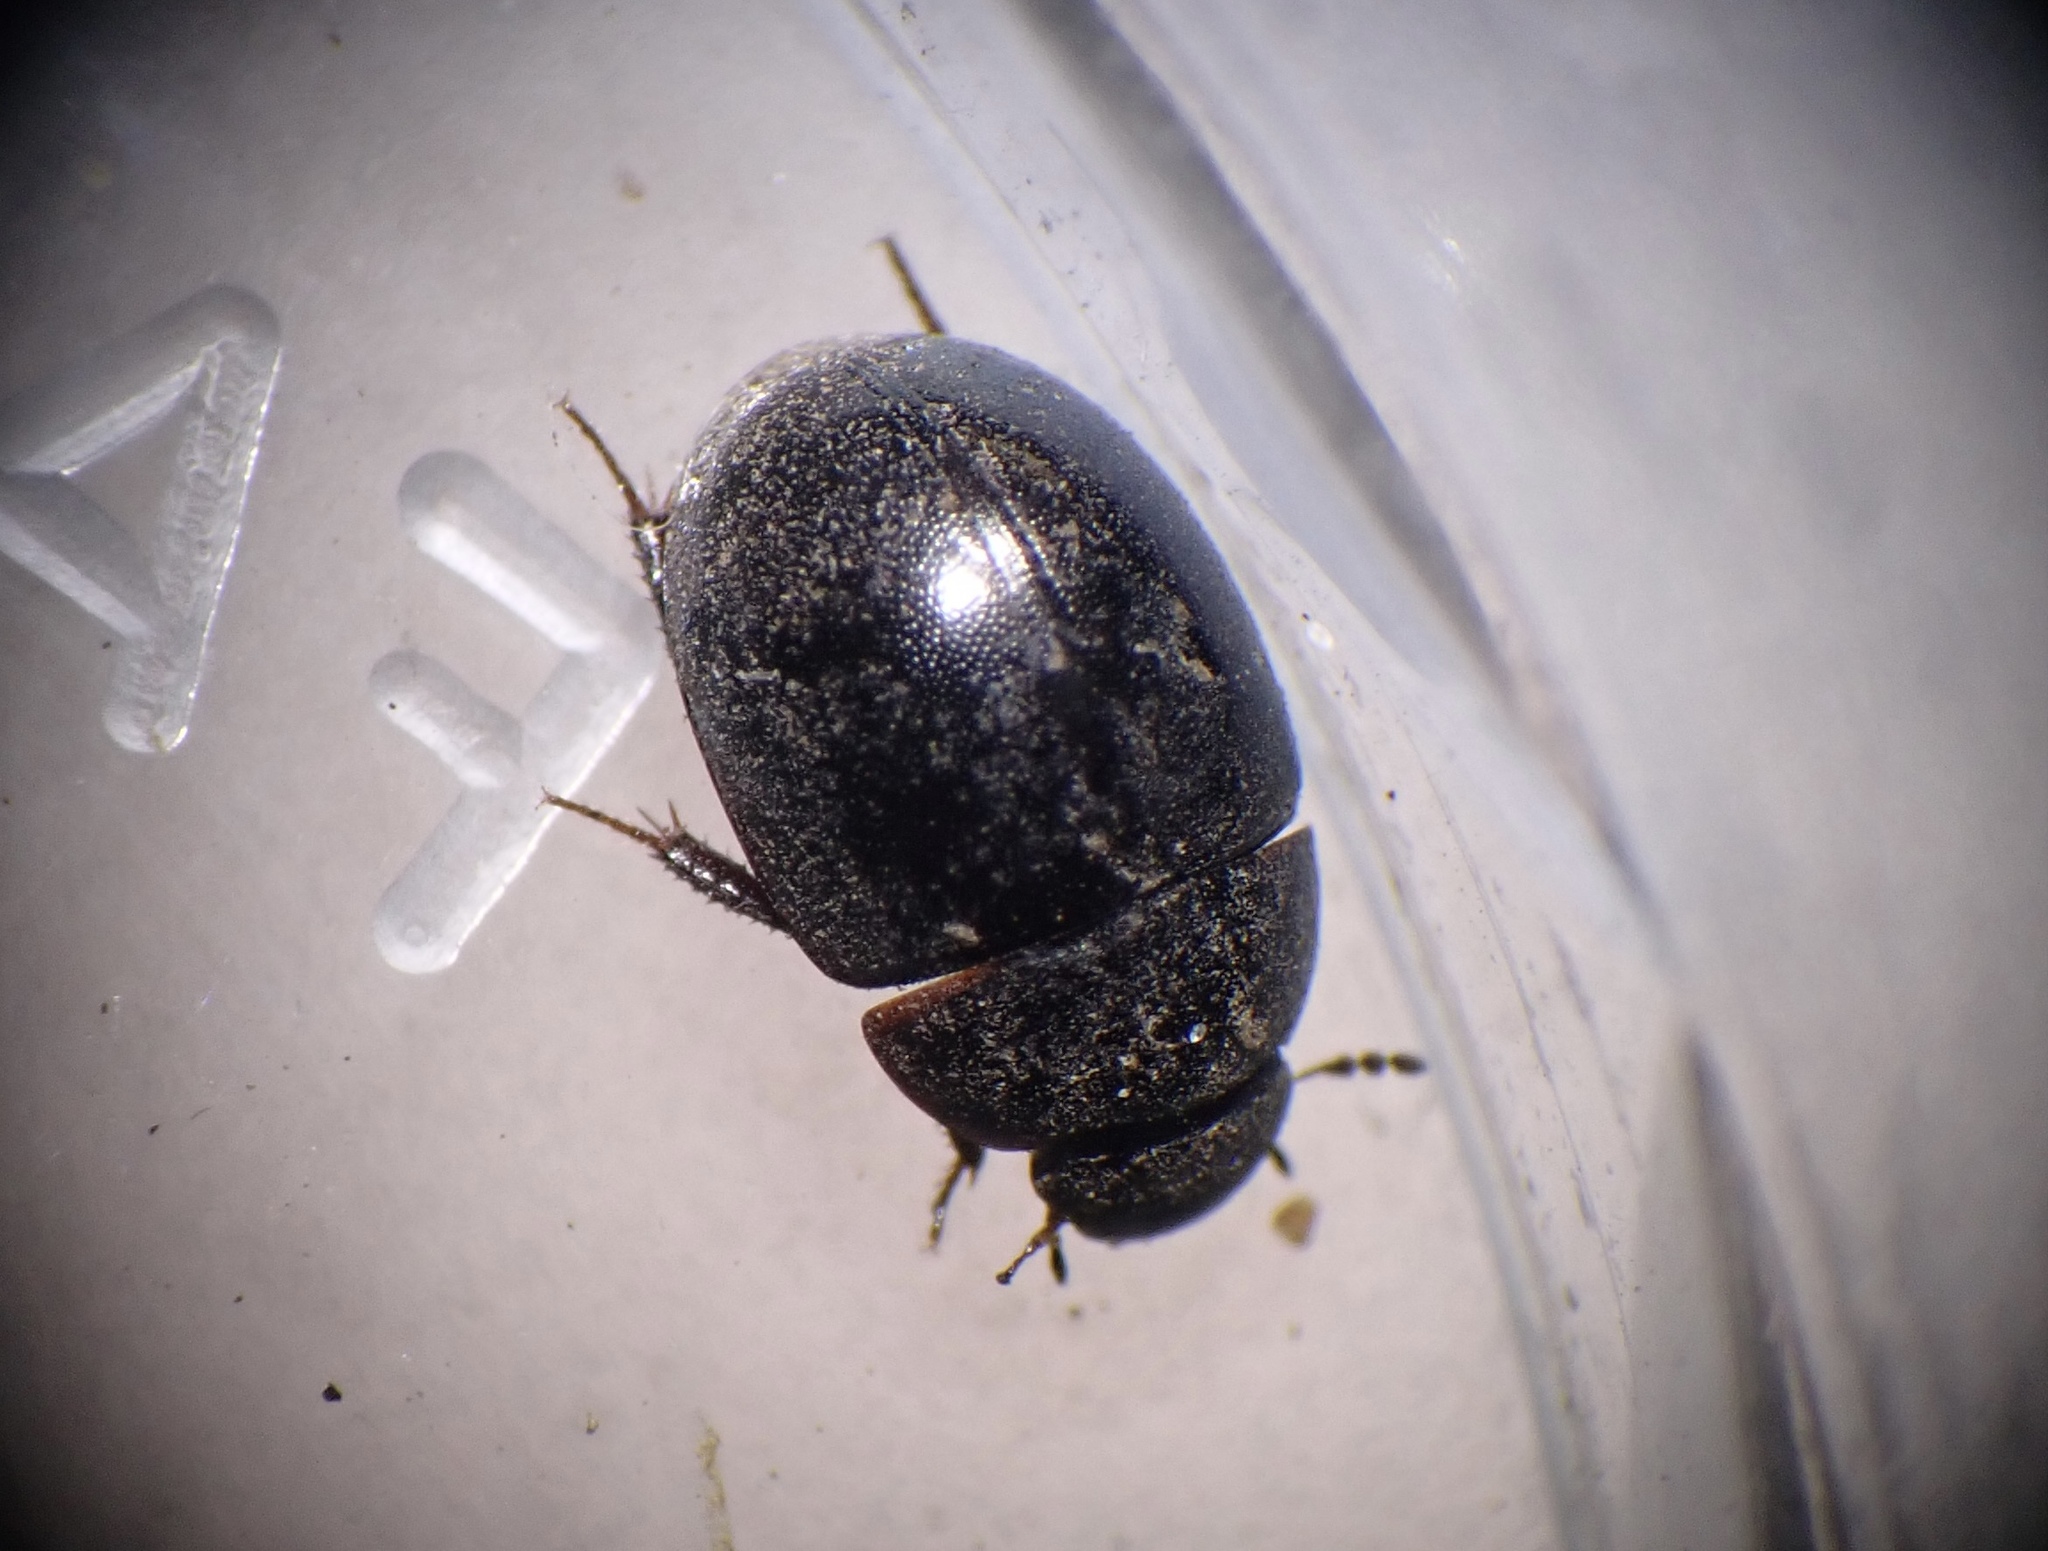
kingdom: Animalia
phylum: Arthropoda
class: Insecta
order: Coleoptera
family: Hydrophilidae
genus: Coelostoma
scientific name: Coelostoma orbiculare
